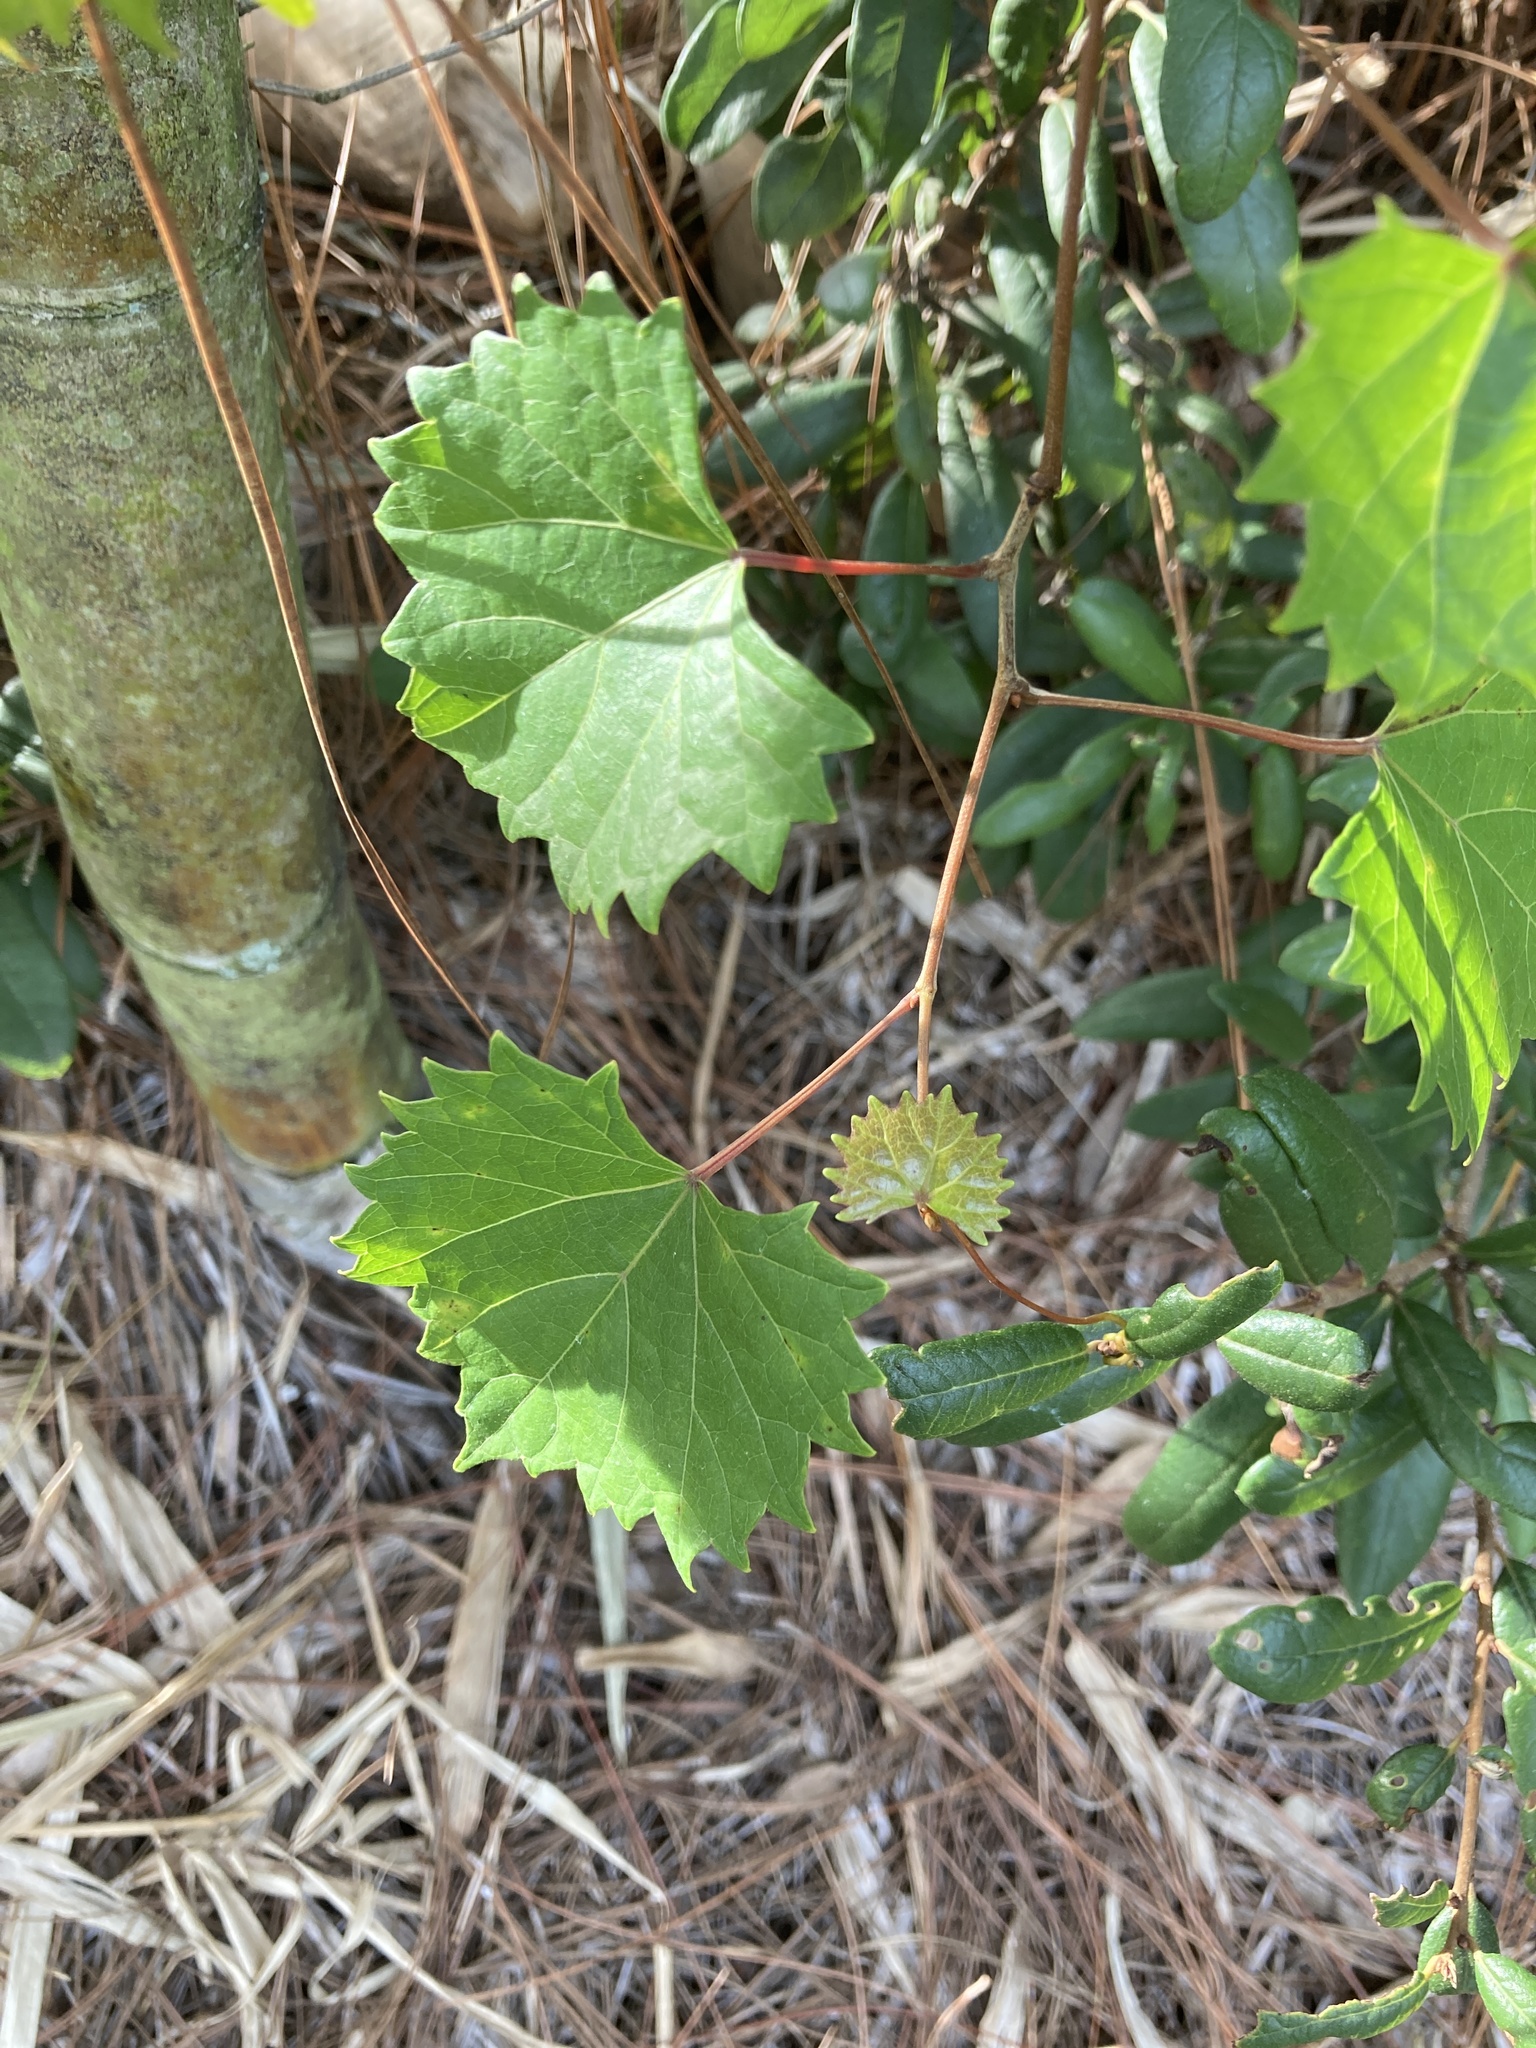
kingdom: Plantae
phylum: Tracheophyta
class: Magnoliopsida
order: Vitales
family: Vitaceae
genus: Vitis
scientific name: Vitis rotundifolia
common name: Muscadine grape
